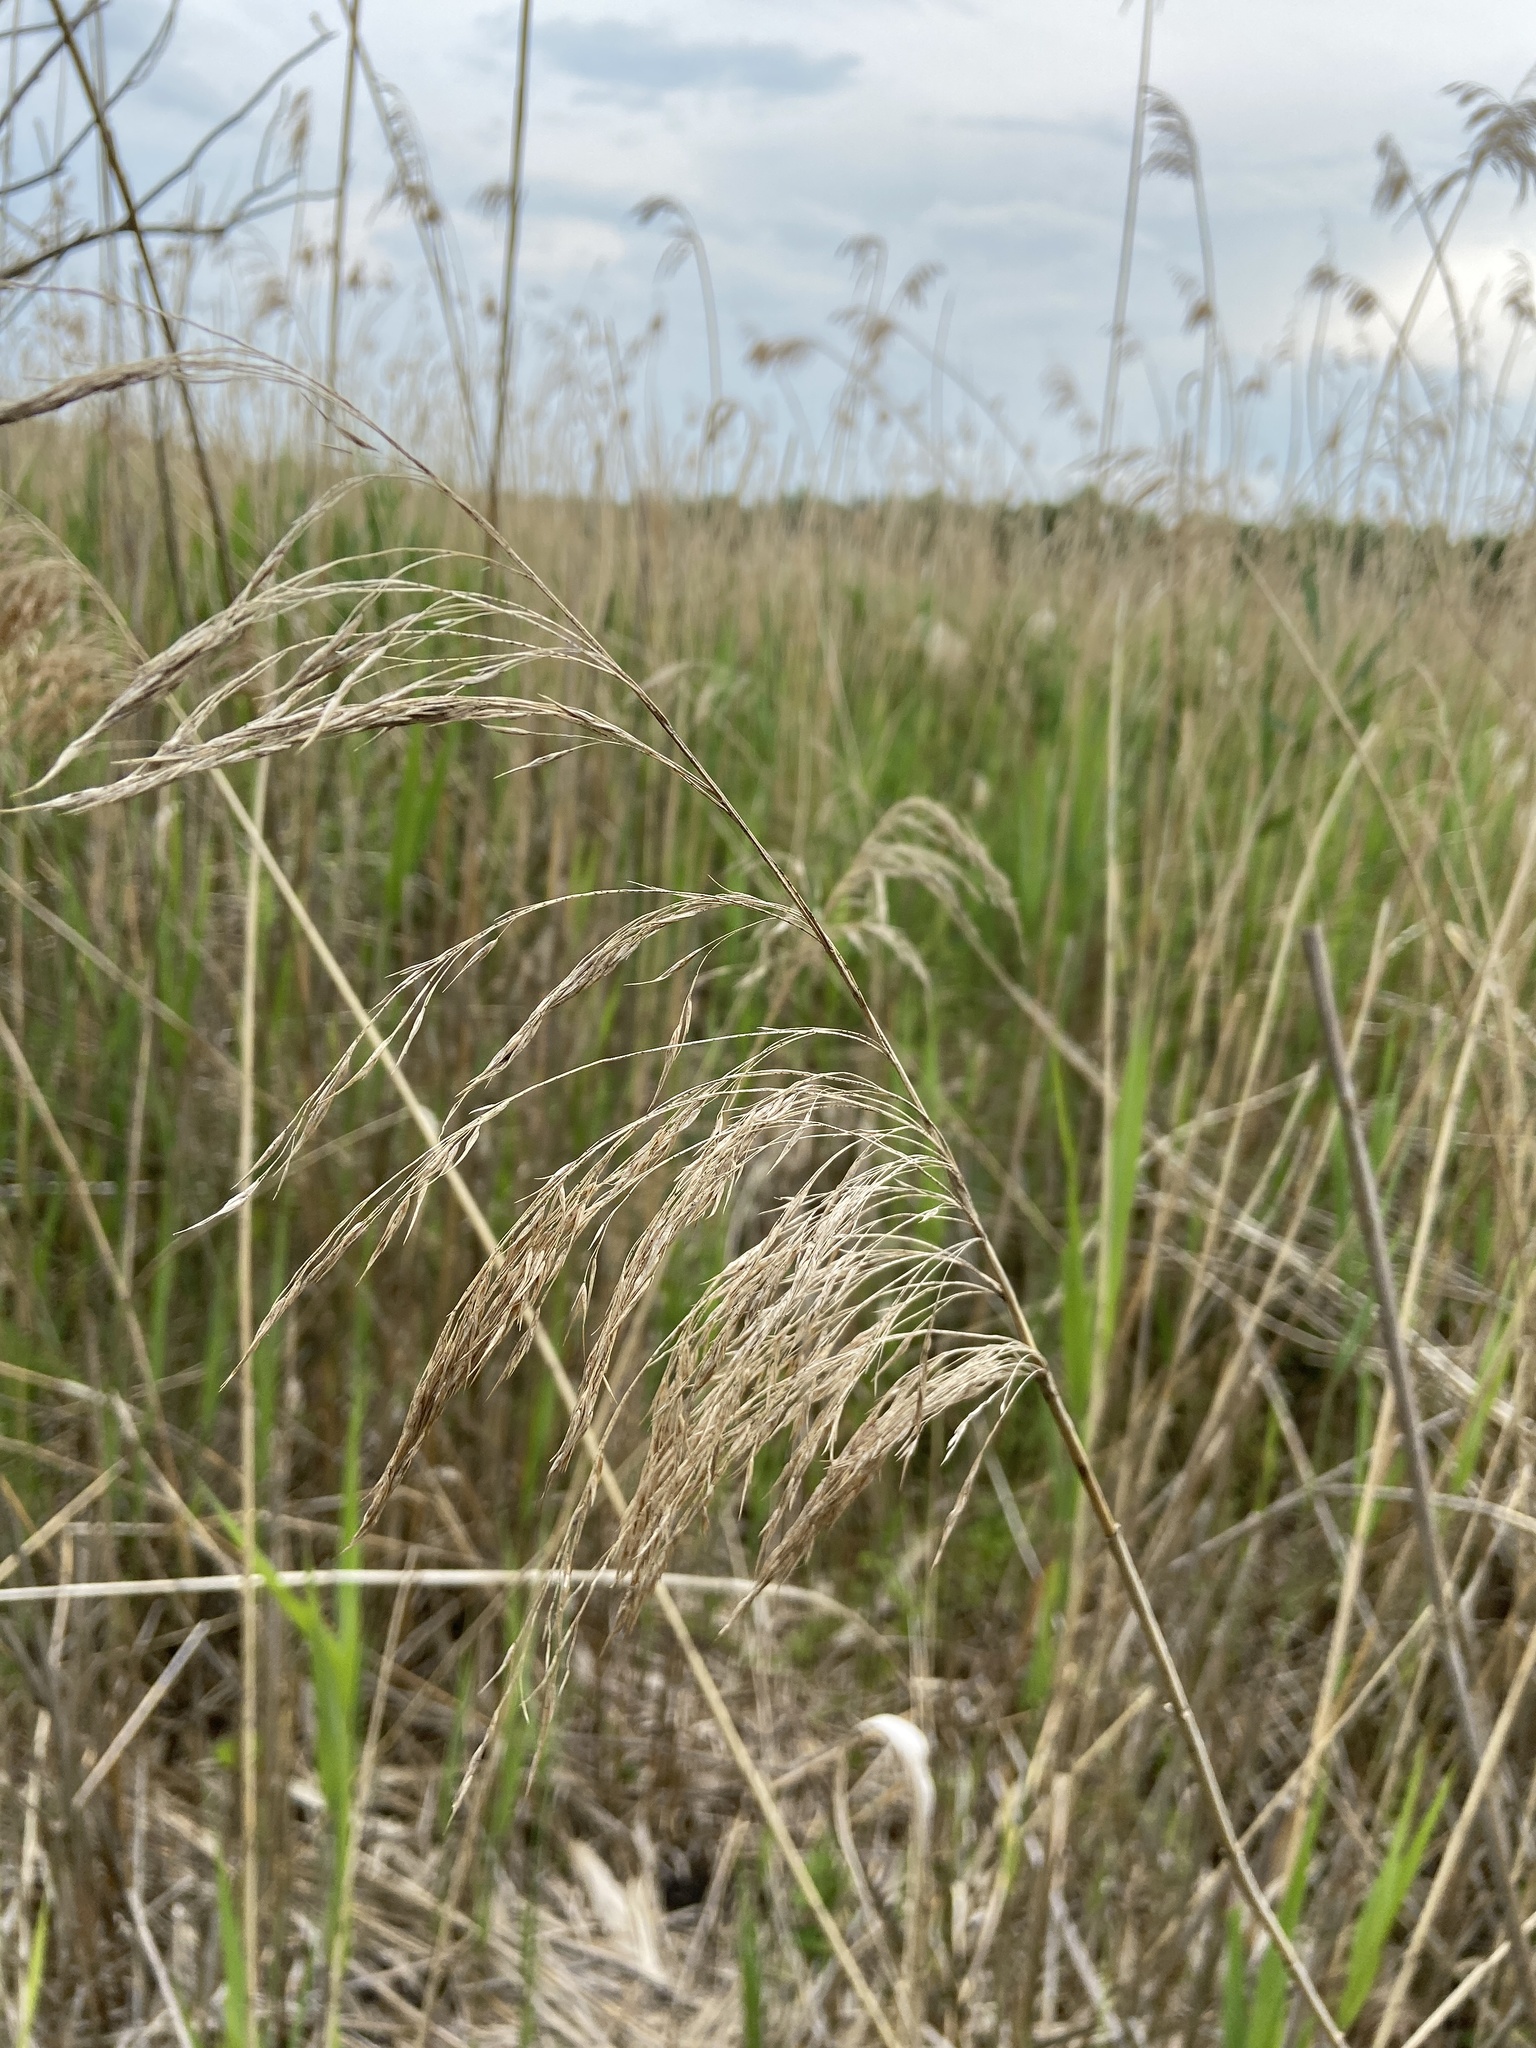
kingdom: Plantae
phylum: Tracheophyta
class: Liliopsida
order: Poales
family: Poaceae
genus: Phragmites
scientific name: Phragmites australis
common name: Common reed
